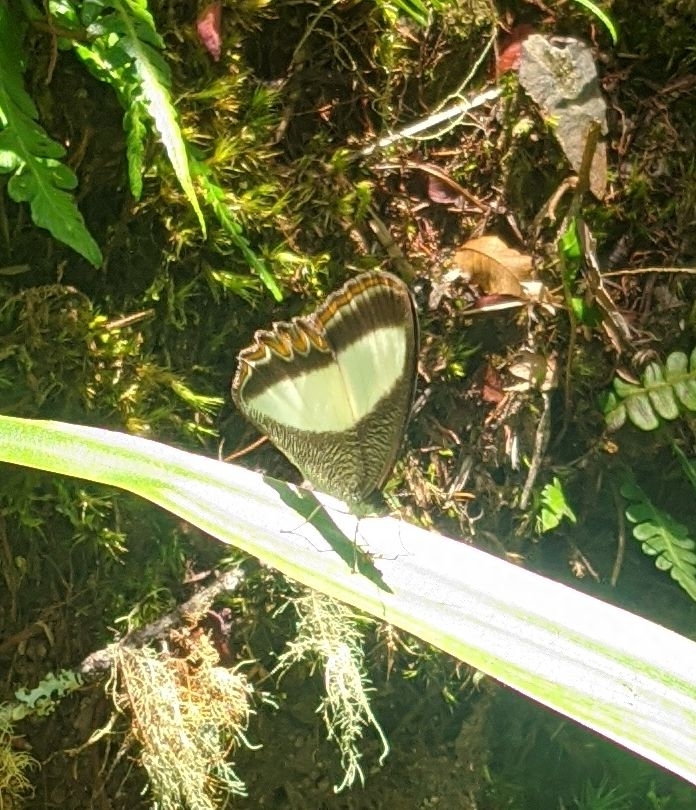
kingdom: Animalia
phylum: Arthropoda
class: Insecta
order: Lepidoptera
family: Nymphalidae
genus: Oressinoma
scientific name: Oressinoma typhla
